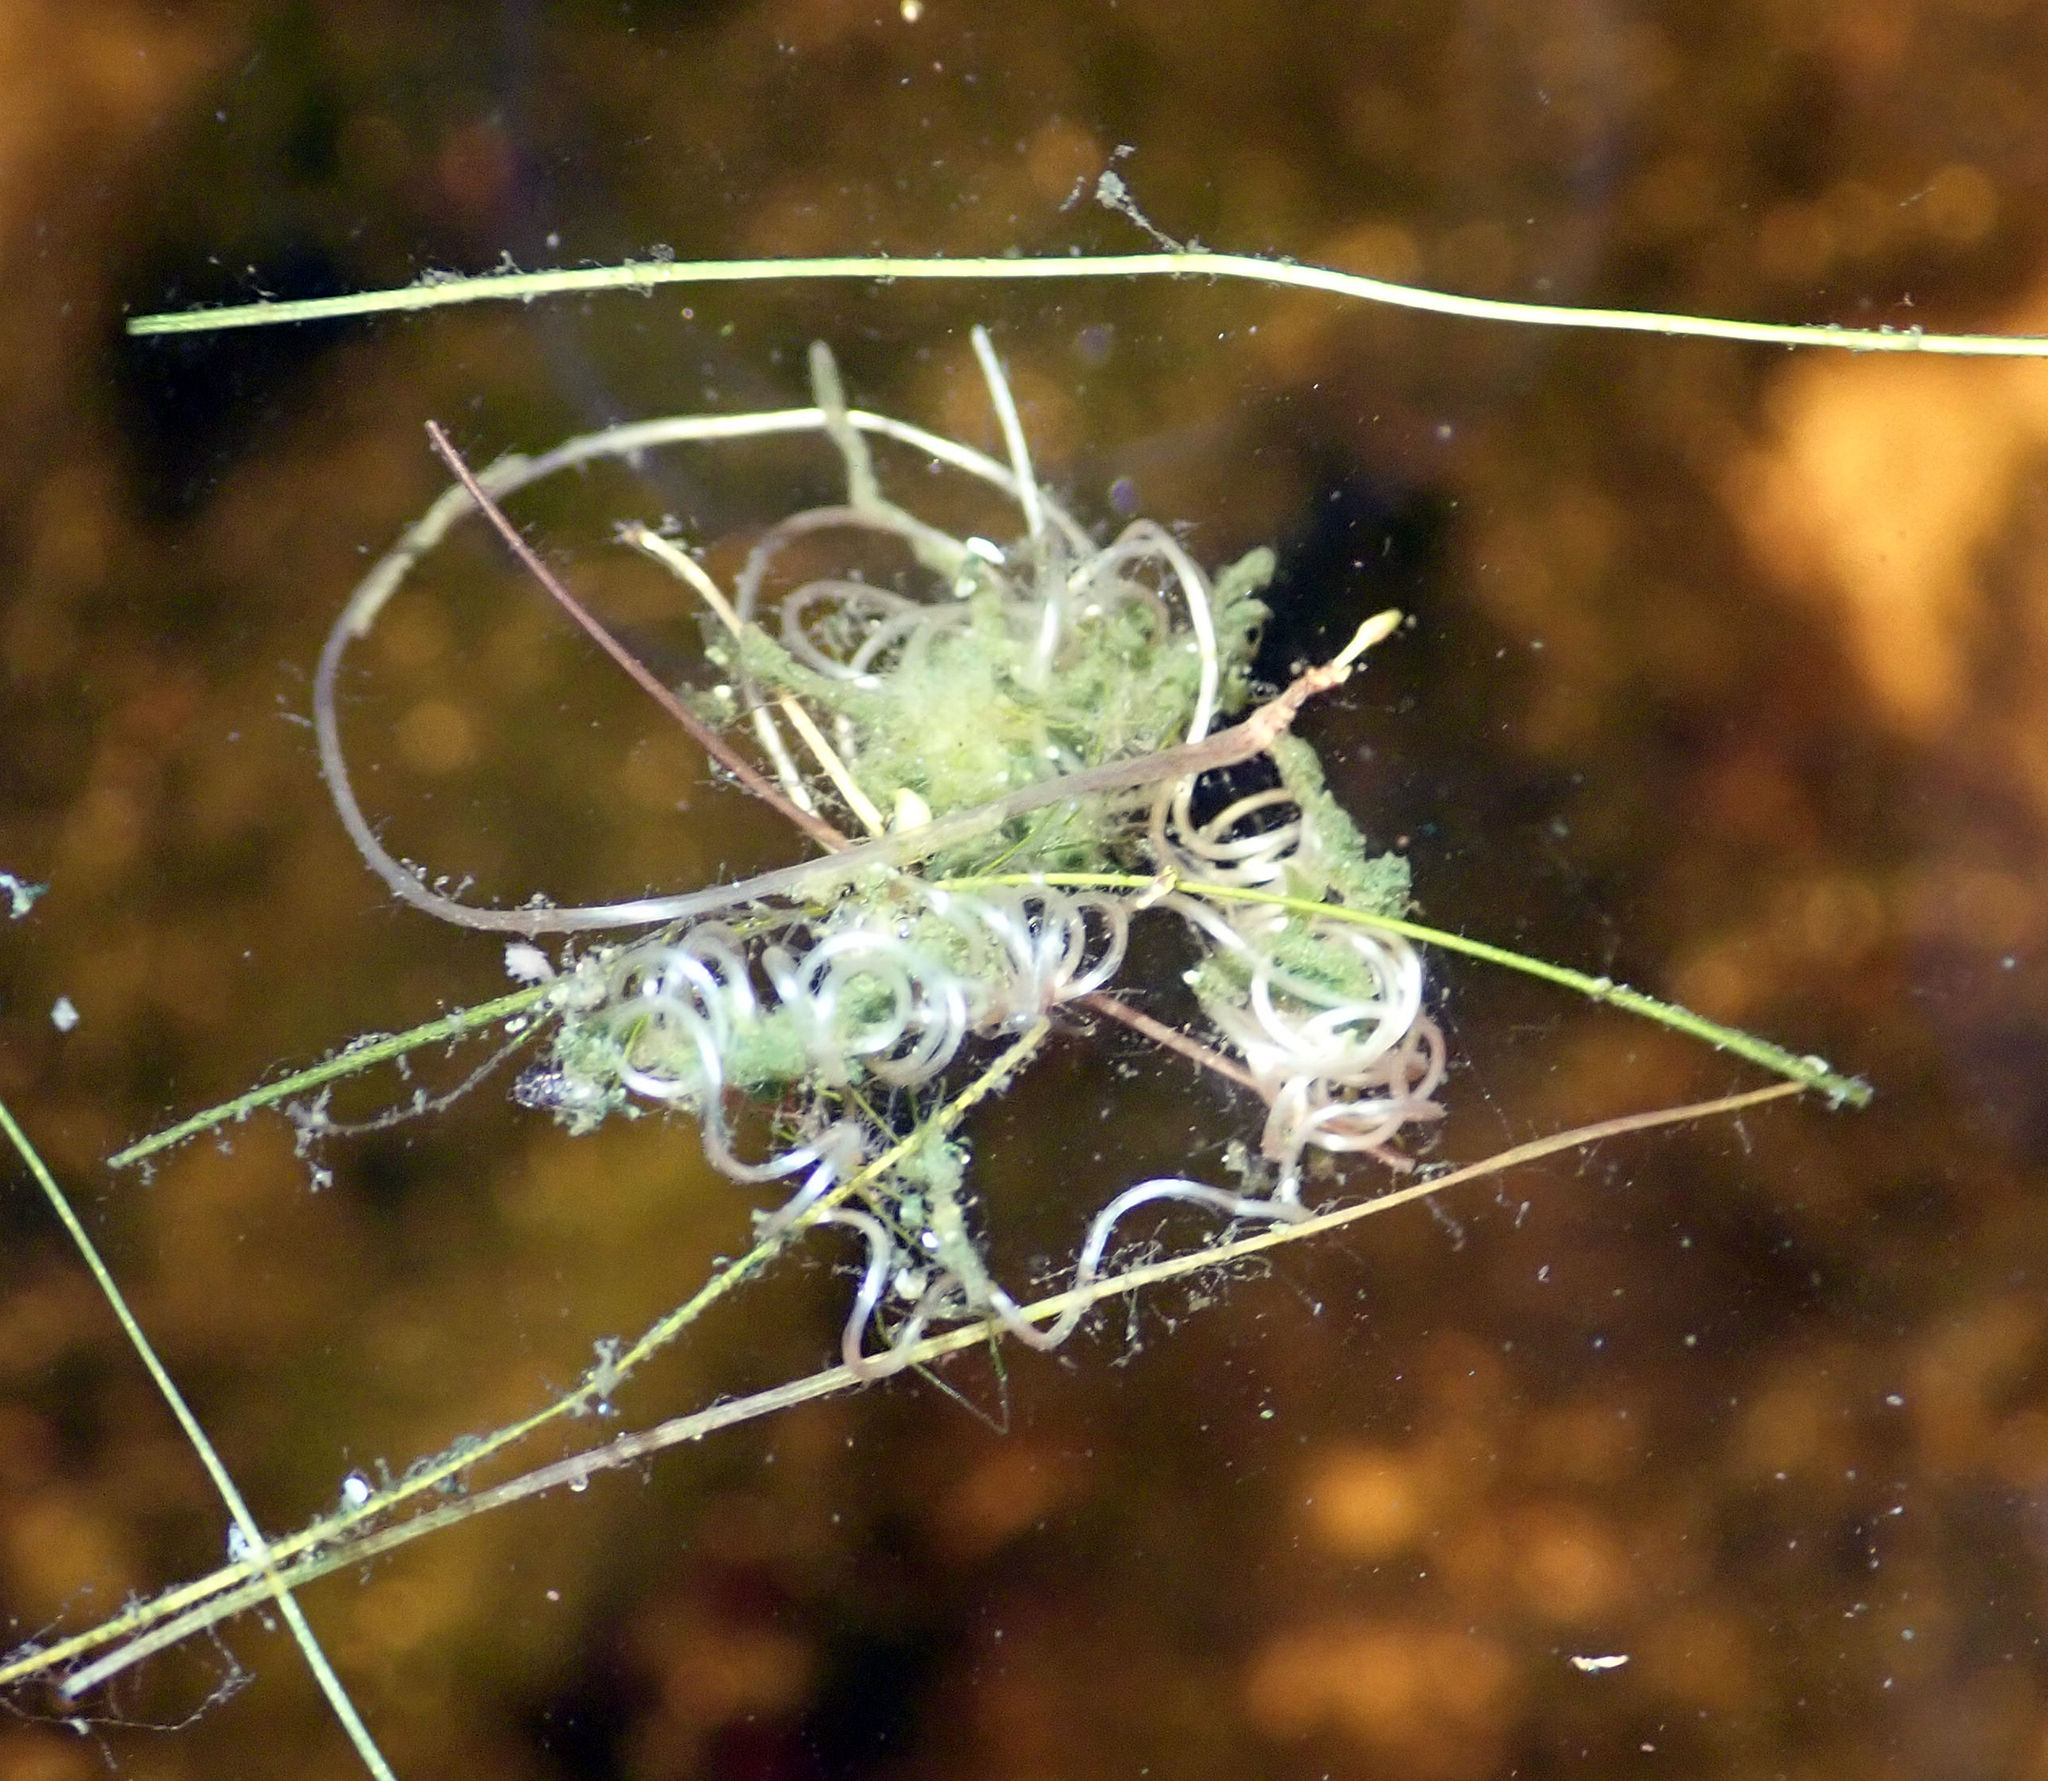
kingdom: Plantae
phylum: Tracheophyta
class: Liliopsida
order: Alismatales
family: Ruppiaceae
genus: Ruppia
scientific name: Ruppia polycarpa
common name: Species code: rp
